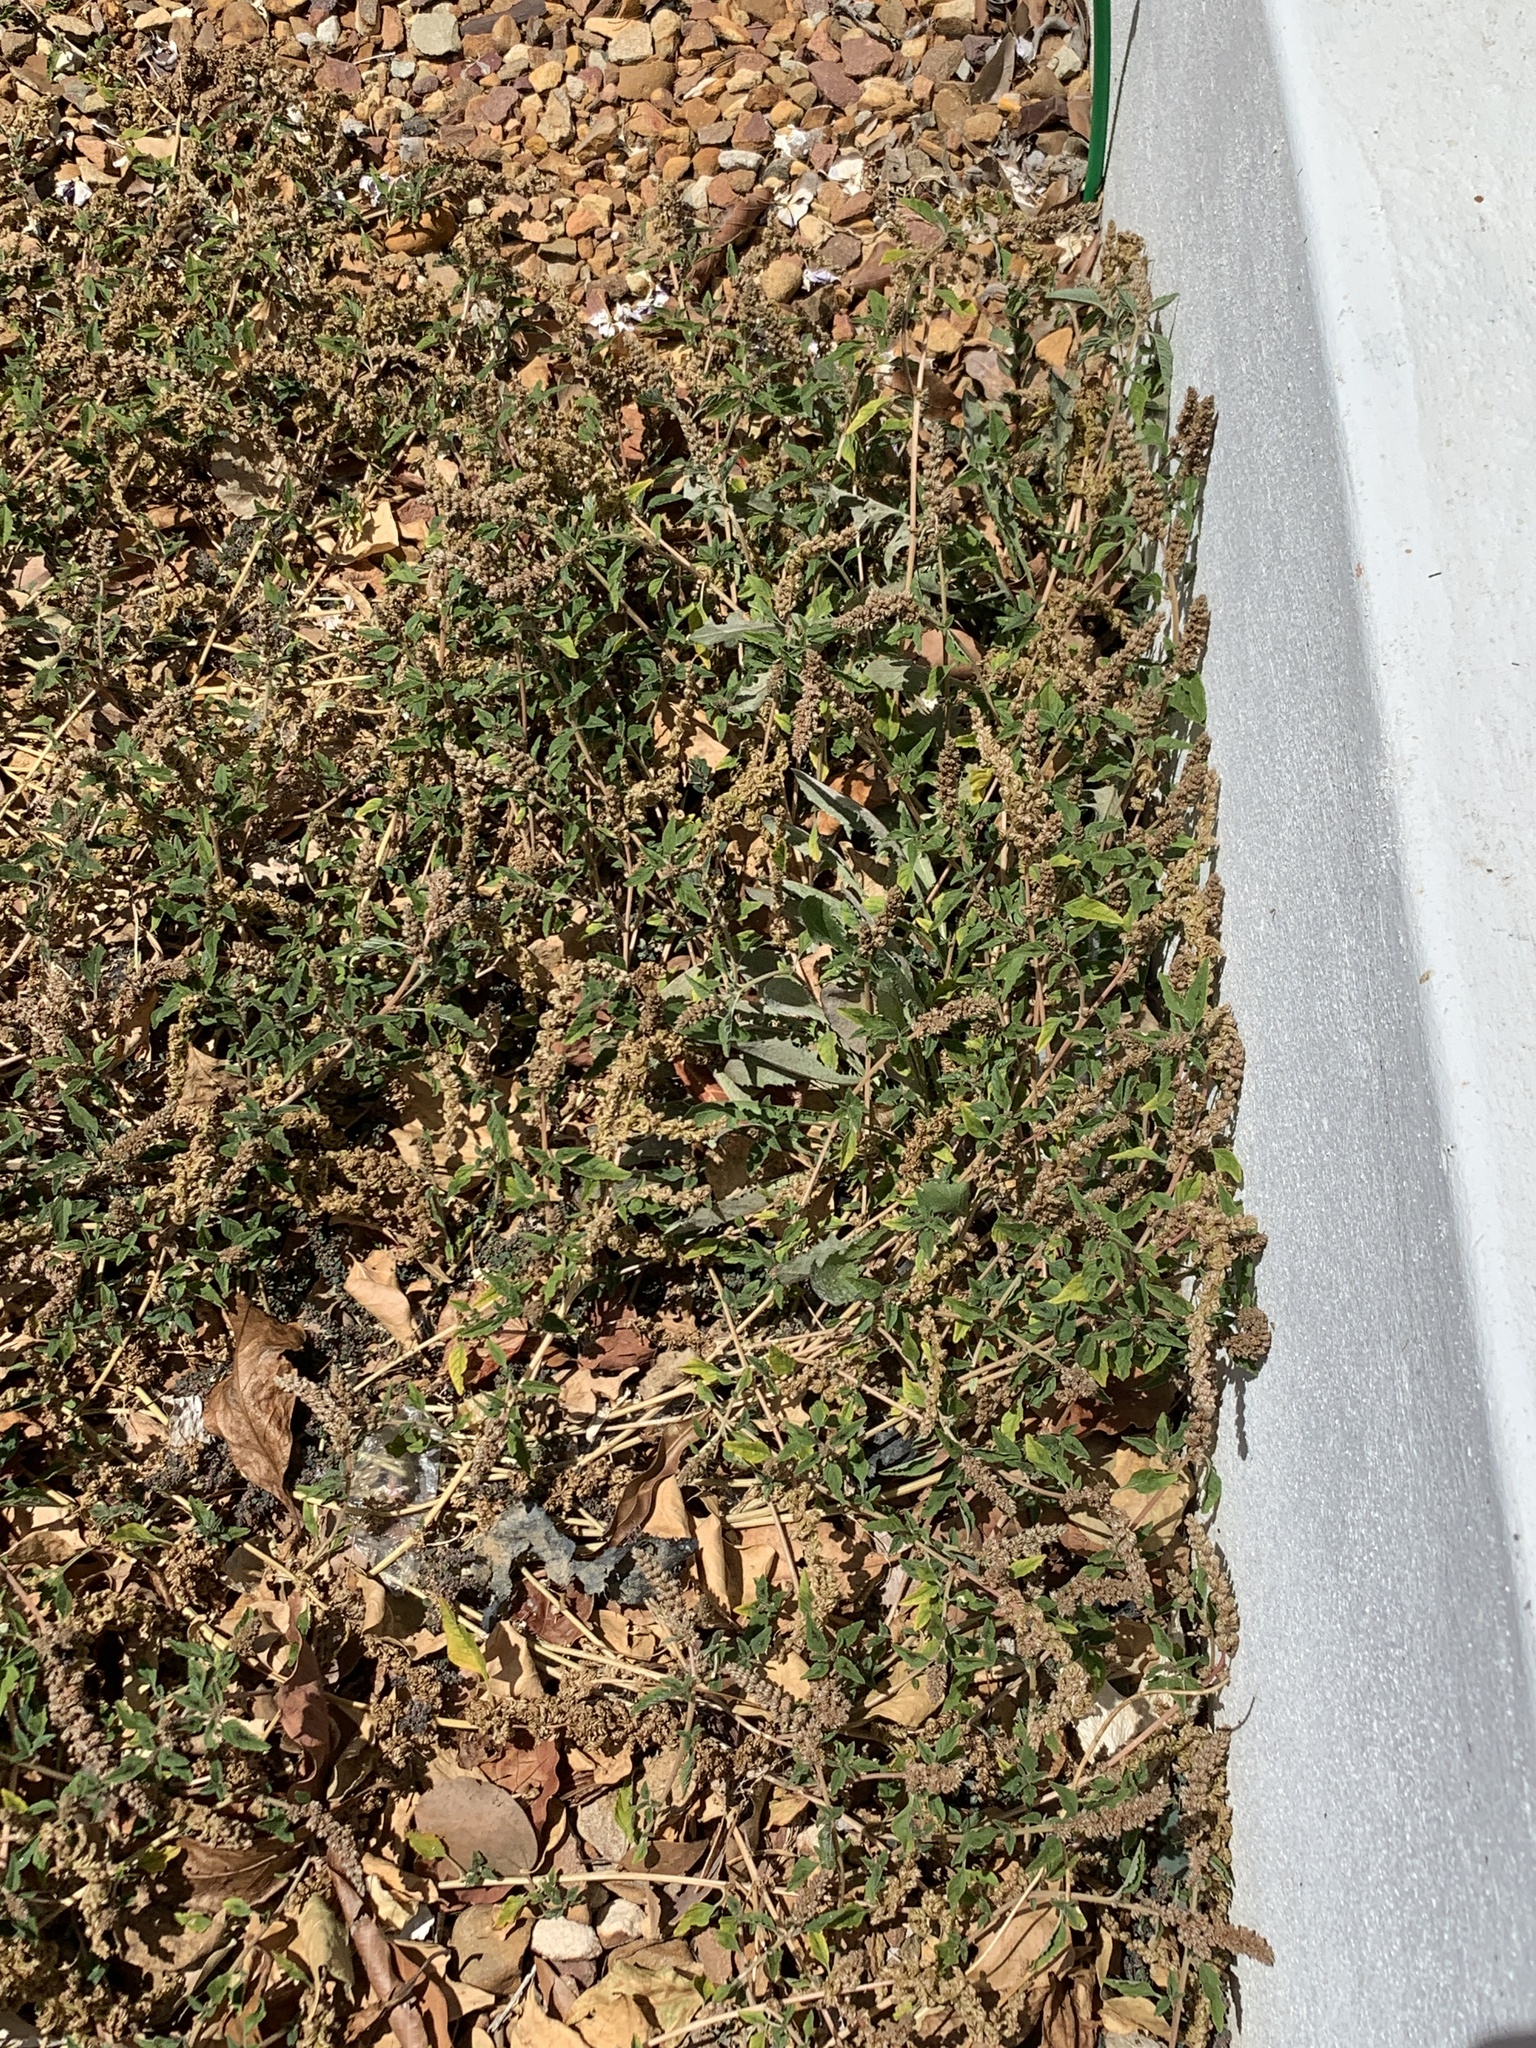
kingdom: Plantae
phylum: Tracheophyta
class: Magnoliopsida
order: Caryophyllales
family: Amaranthaceae
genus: Amaranthus
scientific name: Amaranthus deflexus
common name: Perennial pigweed
